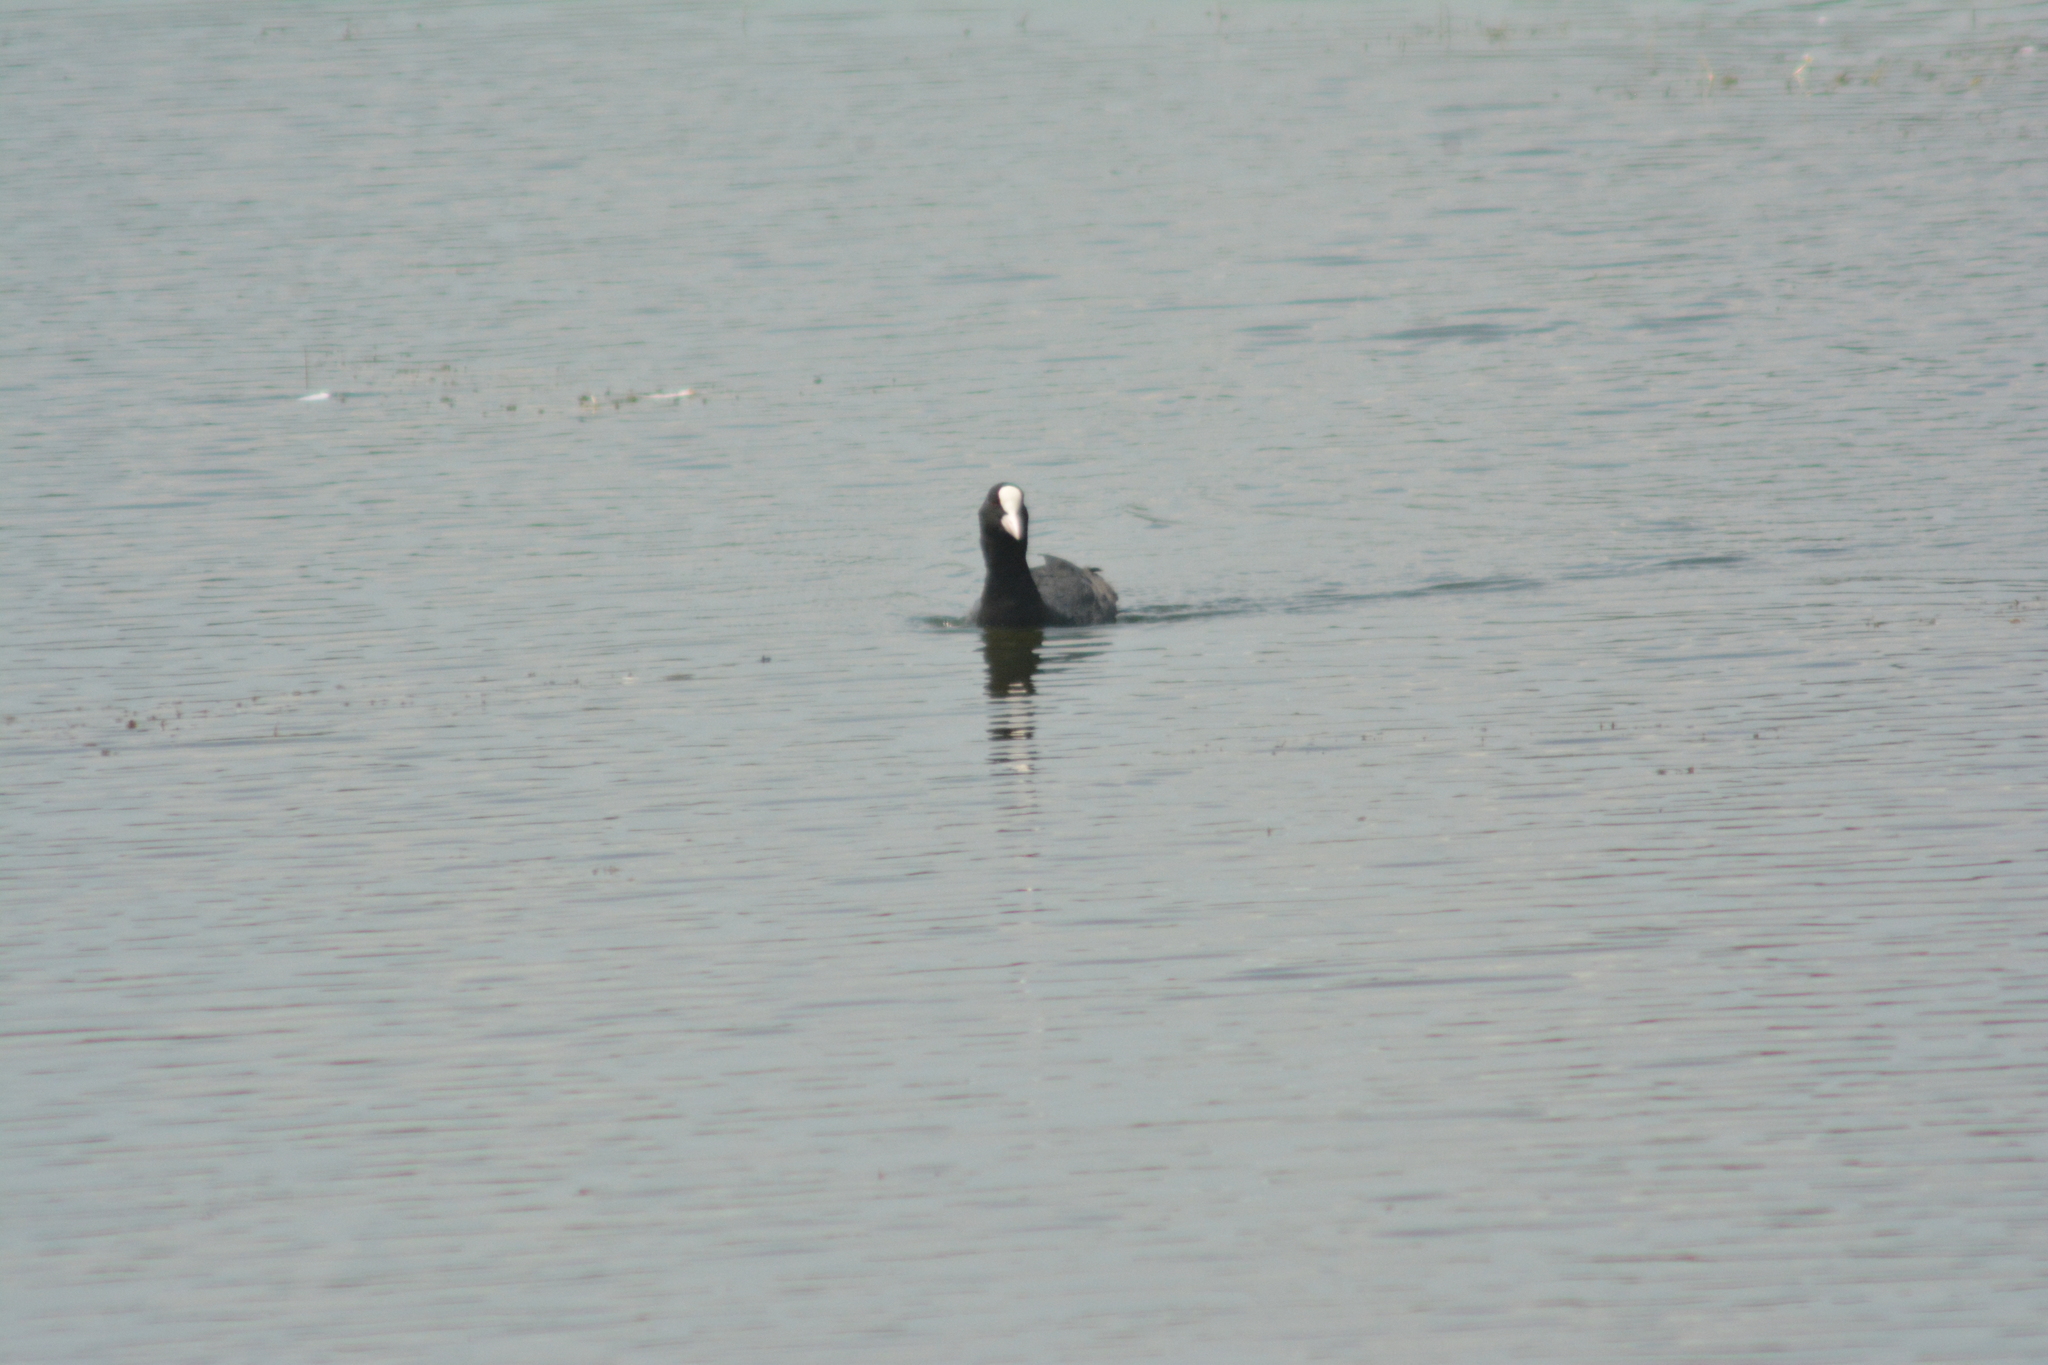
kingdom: Animalia
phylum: Chordata
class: Aves
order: Gruiformes
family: Rallidae
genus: Fulica
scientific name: Fulica atra
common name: Eurasian coot
